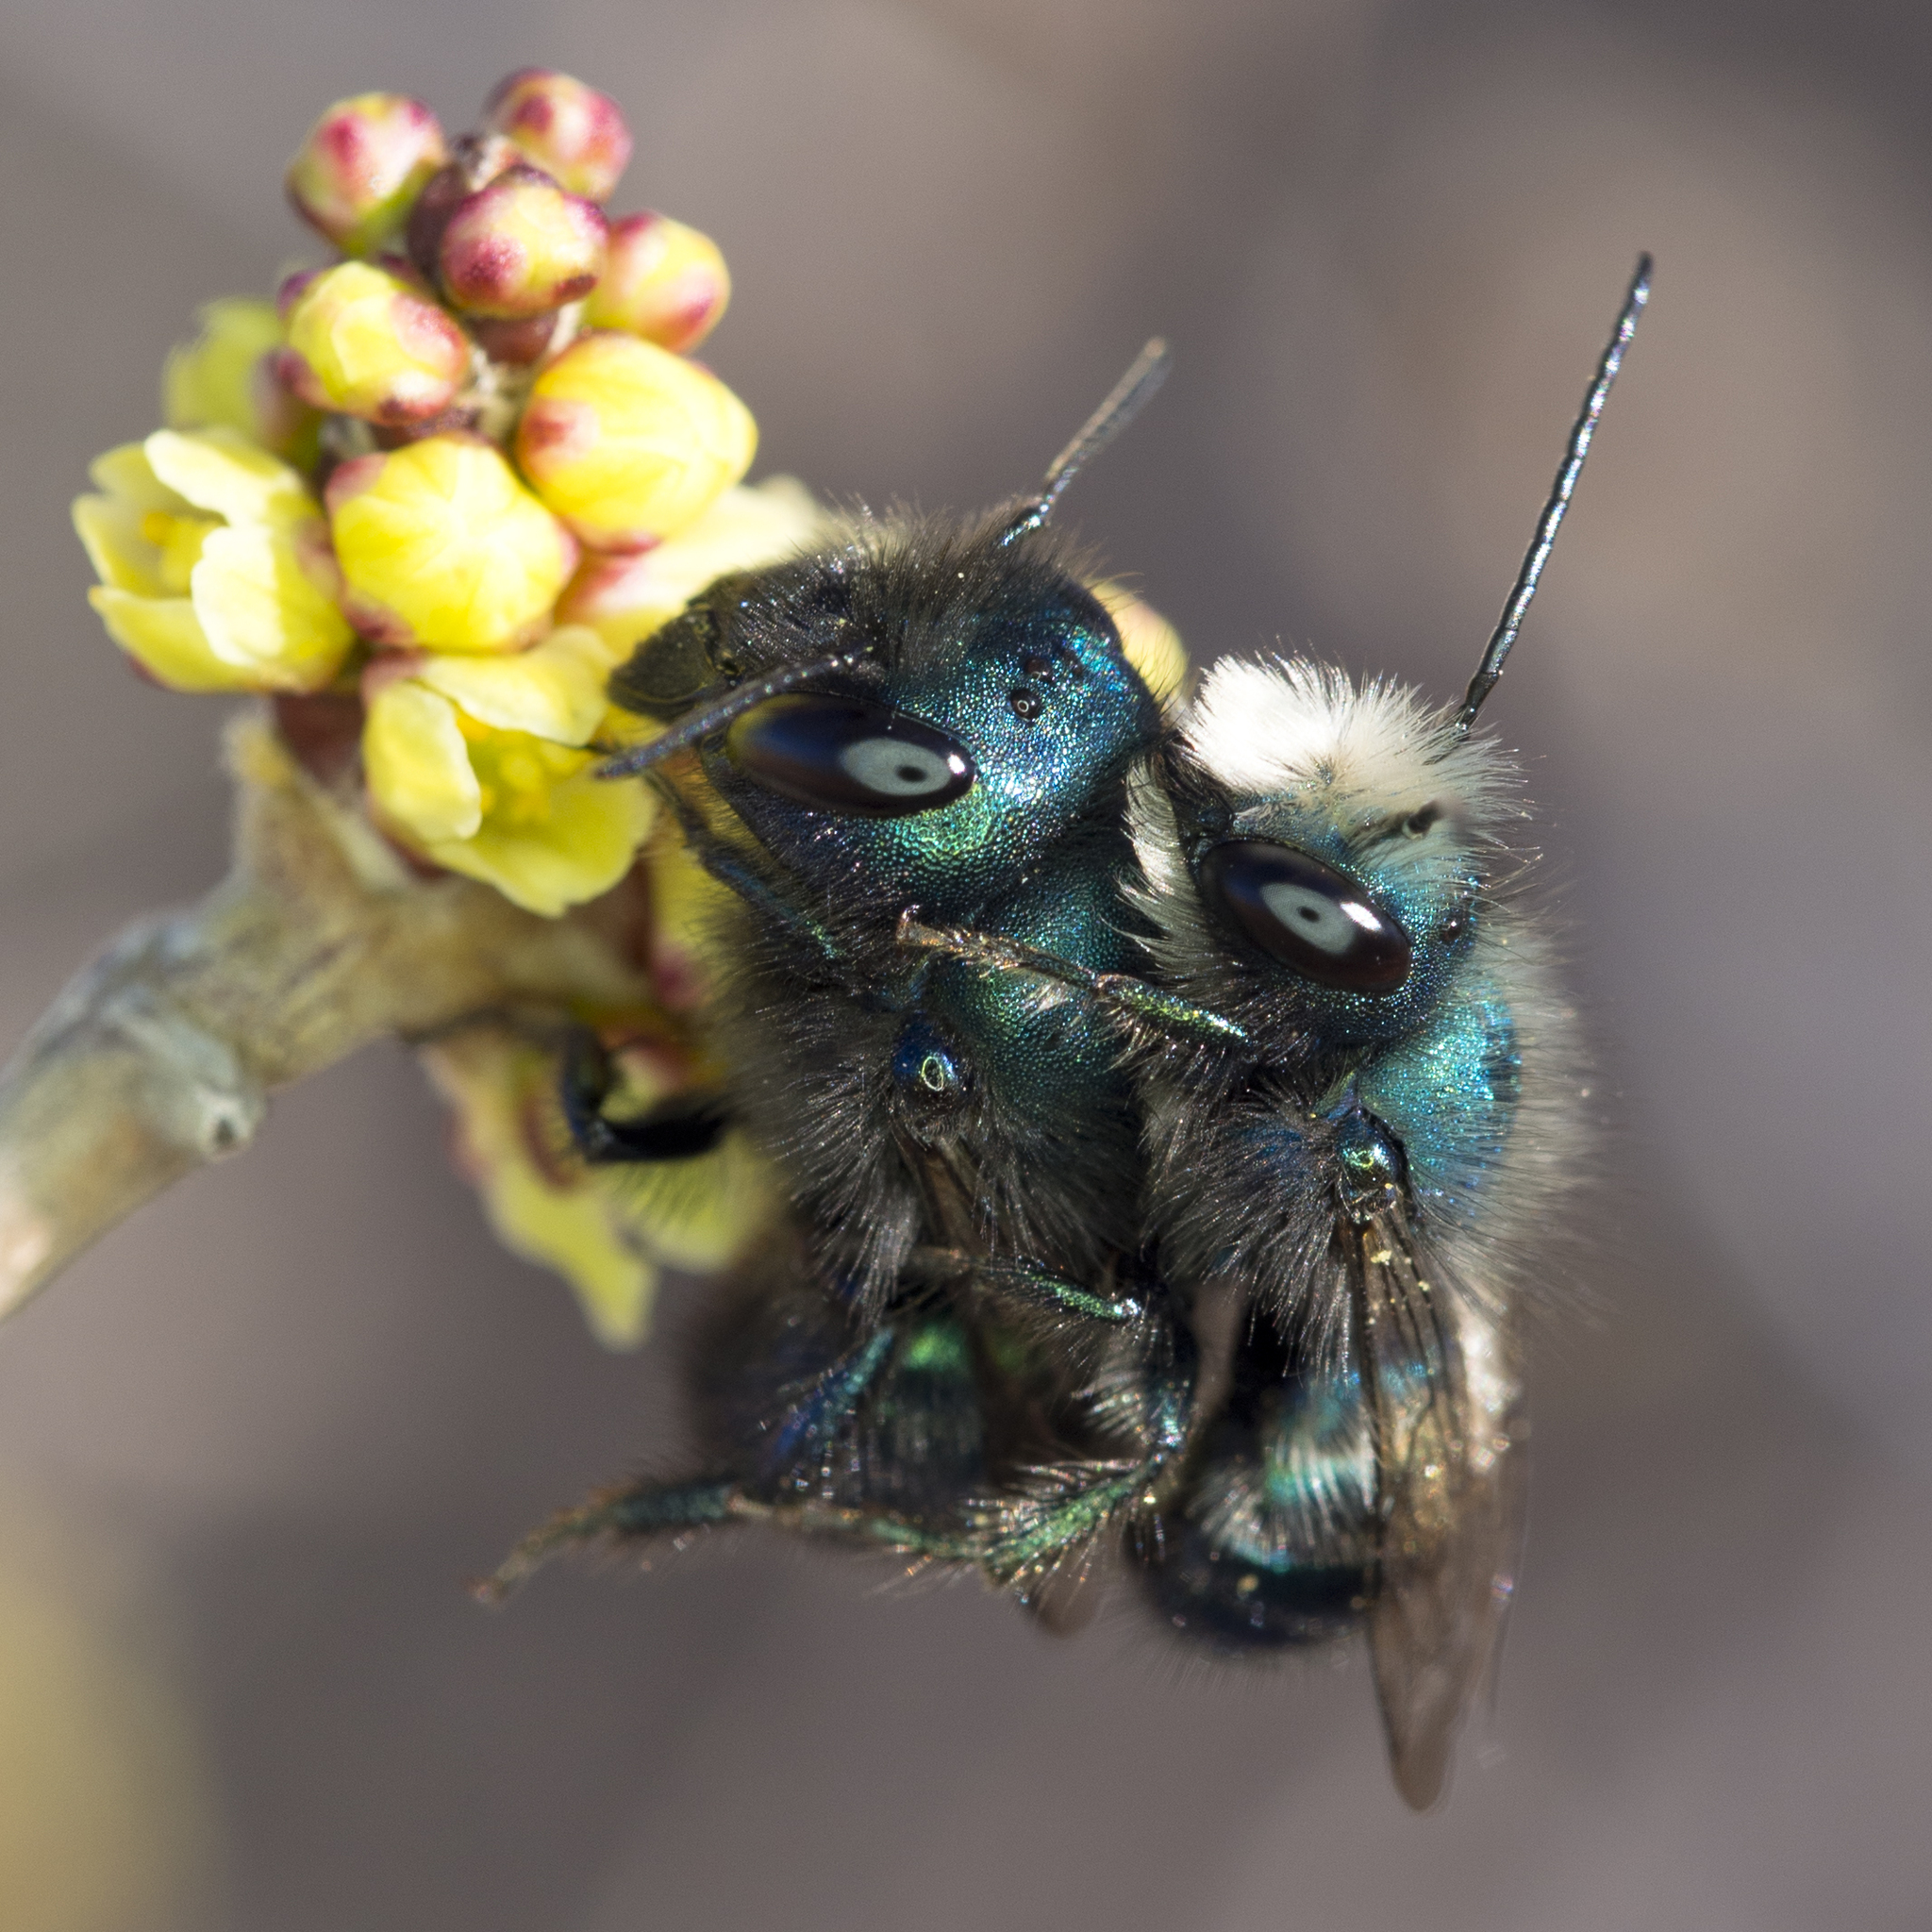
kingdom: Animalia
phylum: Arthropoda
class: Insecta
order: Hymenoptera
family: Megachilidae
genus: Osmia
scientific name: Osmia ribifloris
